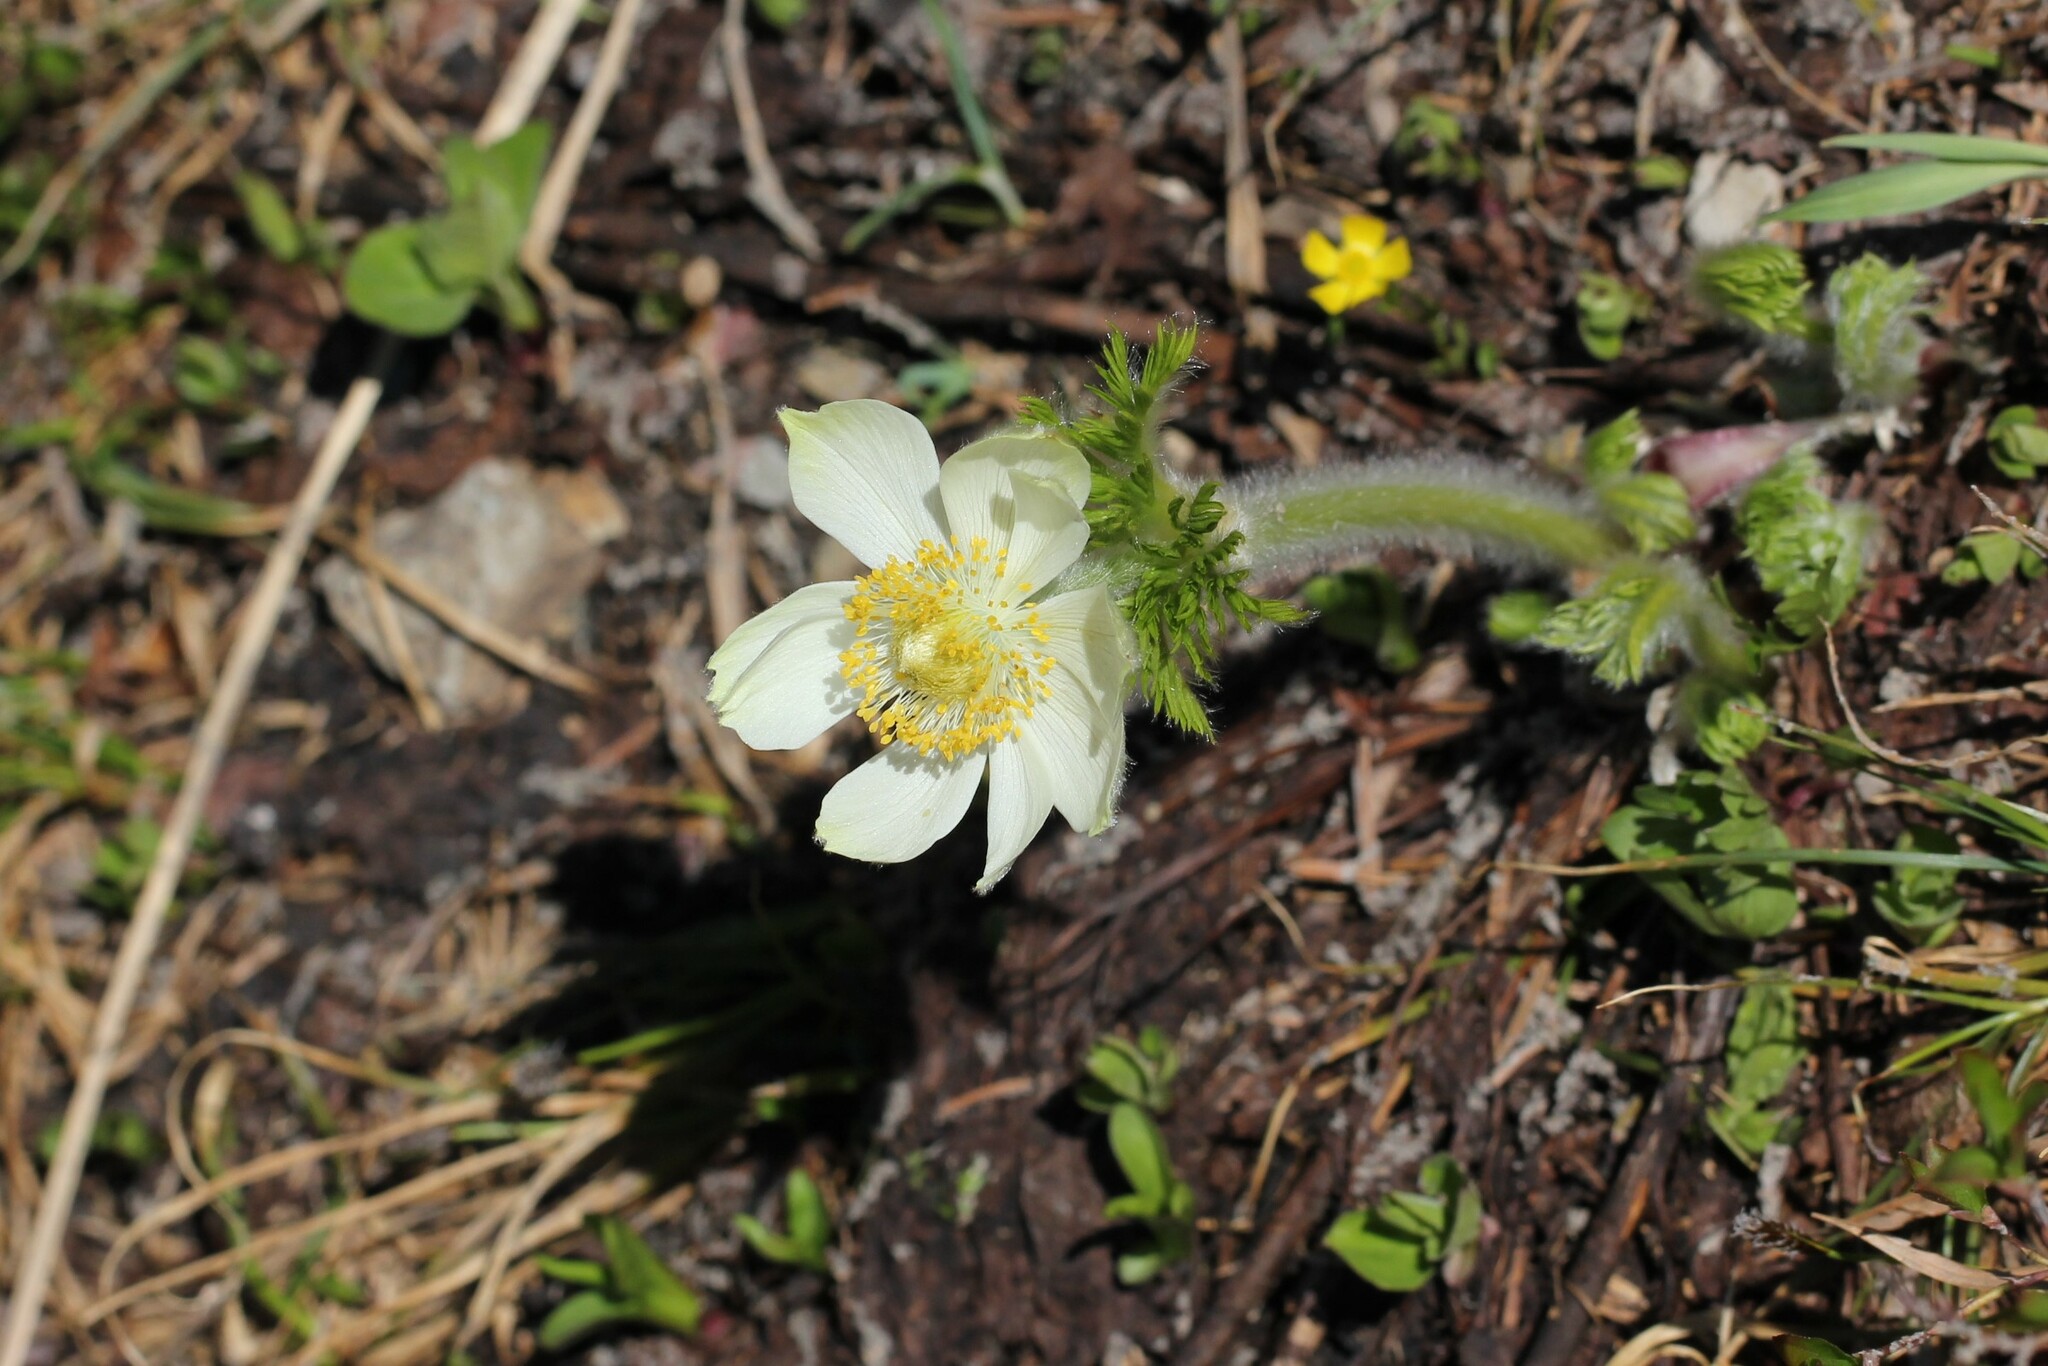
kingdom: Plantae
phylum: Tracheophyta
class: Magnoliopsida
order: Ranunculales
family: Ranunculaceae
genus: Pulsatilla
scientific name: Pulsatilla occidentalis
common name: Mountain pasqueflower
